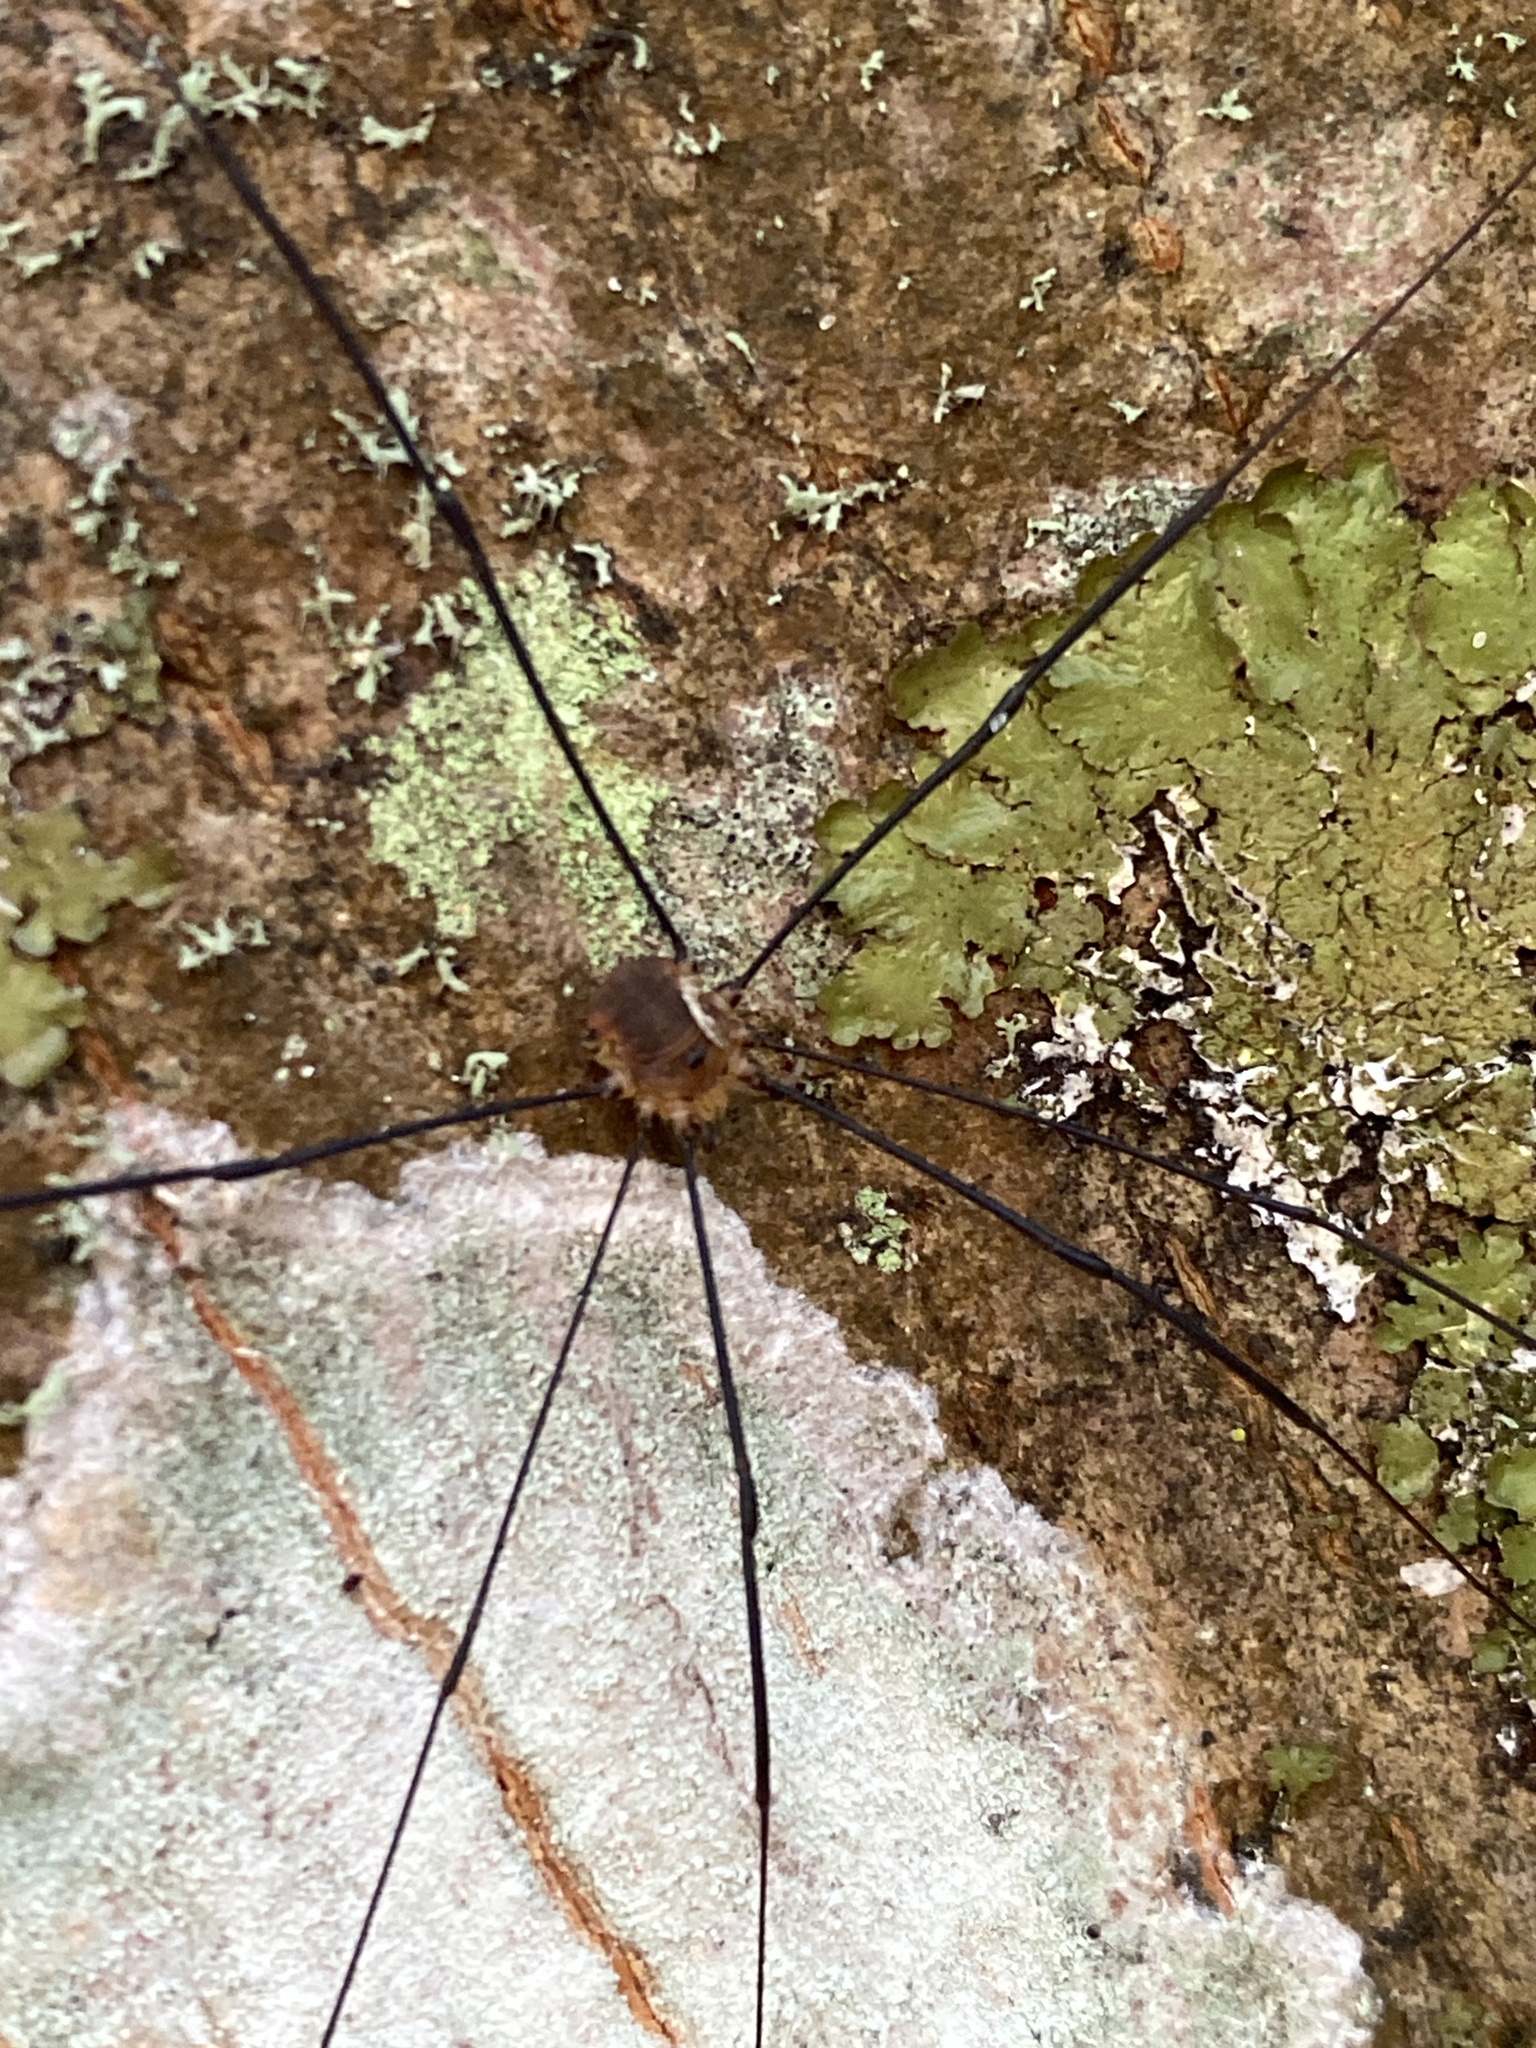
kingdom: Animalia
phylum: Arthropoda
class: Arachnida
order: Opiliones
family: Sclerosomatidae
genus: Leiobunum
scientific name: Leiobunum rotundum
